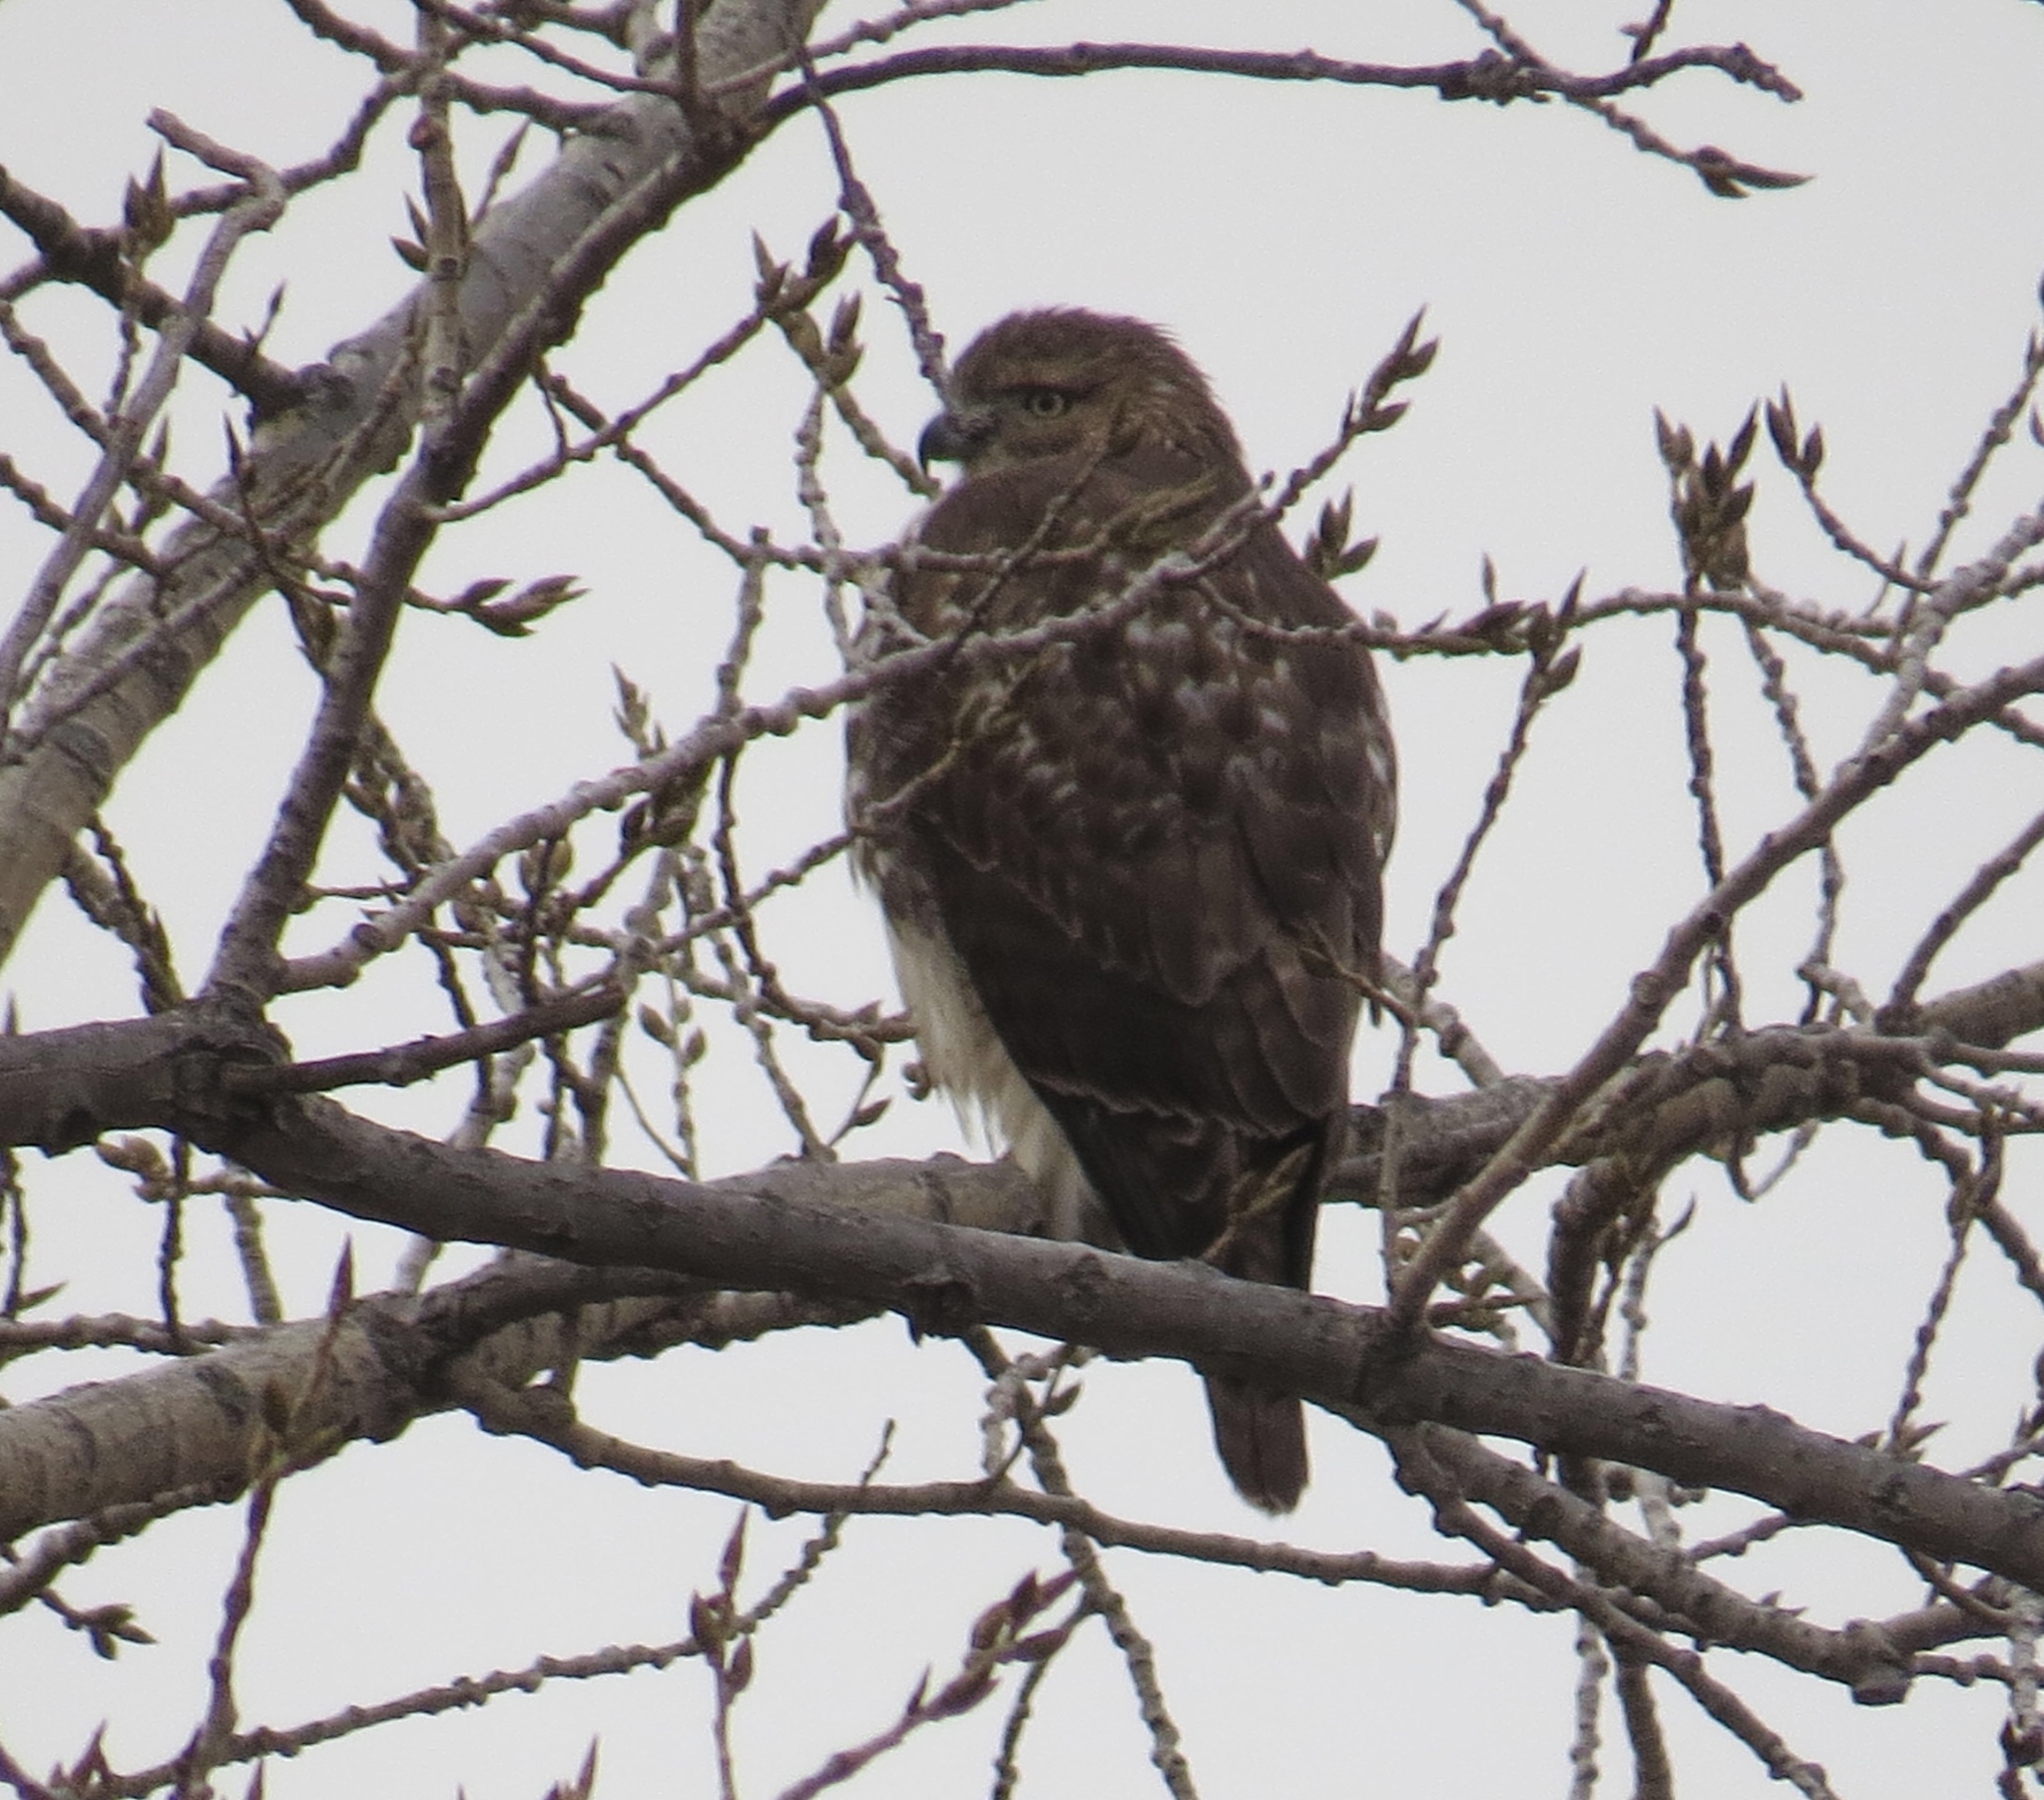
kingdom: Animalia
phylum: Chordata
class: Aves
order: Accipitriformes
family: Accipitridae
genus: Buteo
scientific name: Buteo jamaicensis
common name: Red-tailed hawk
